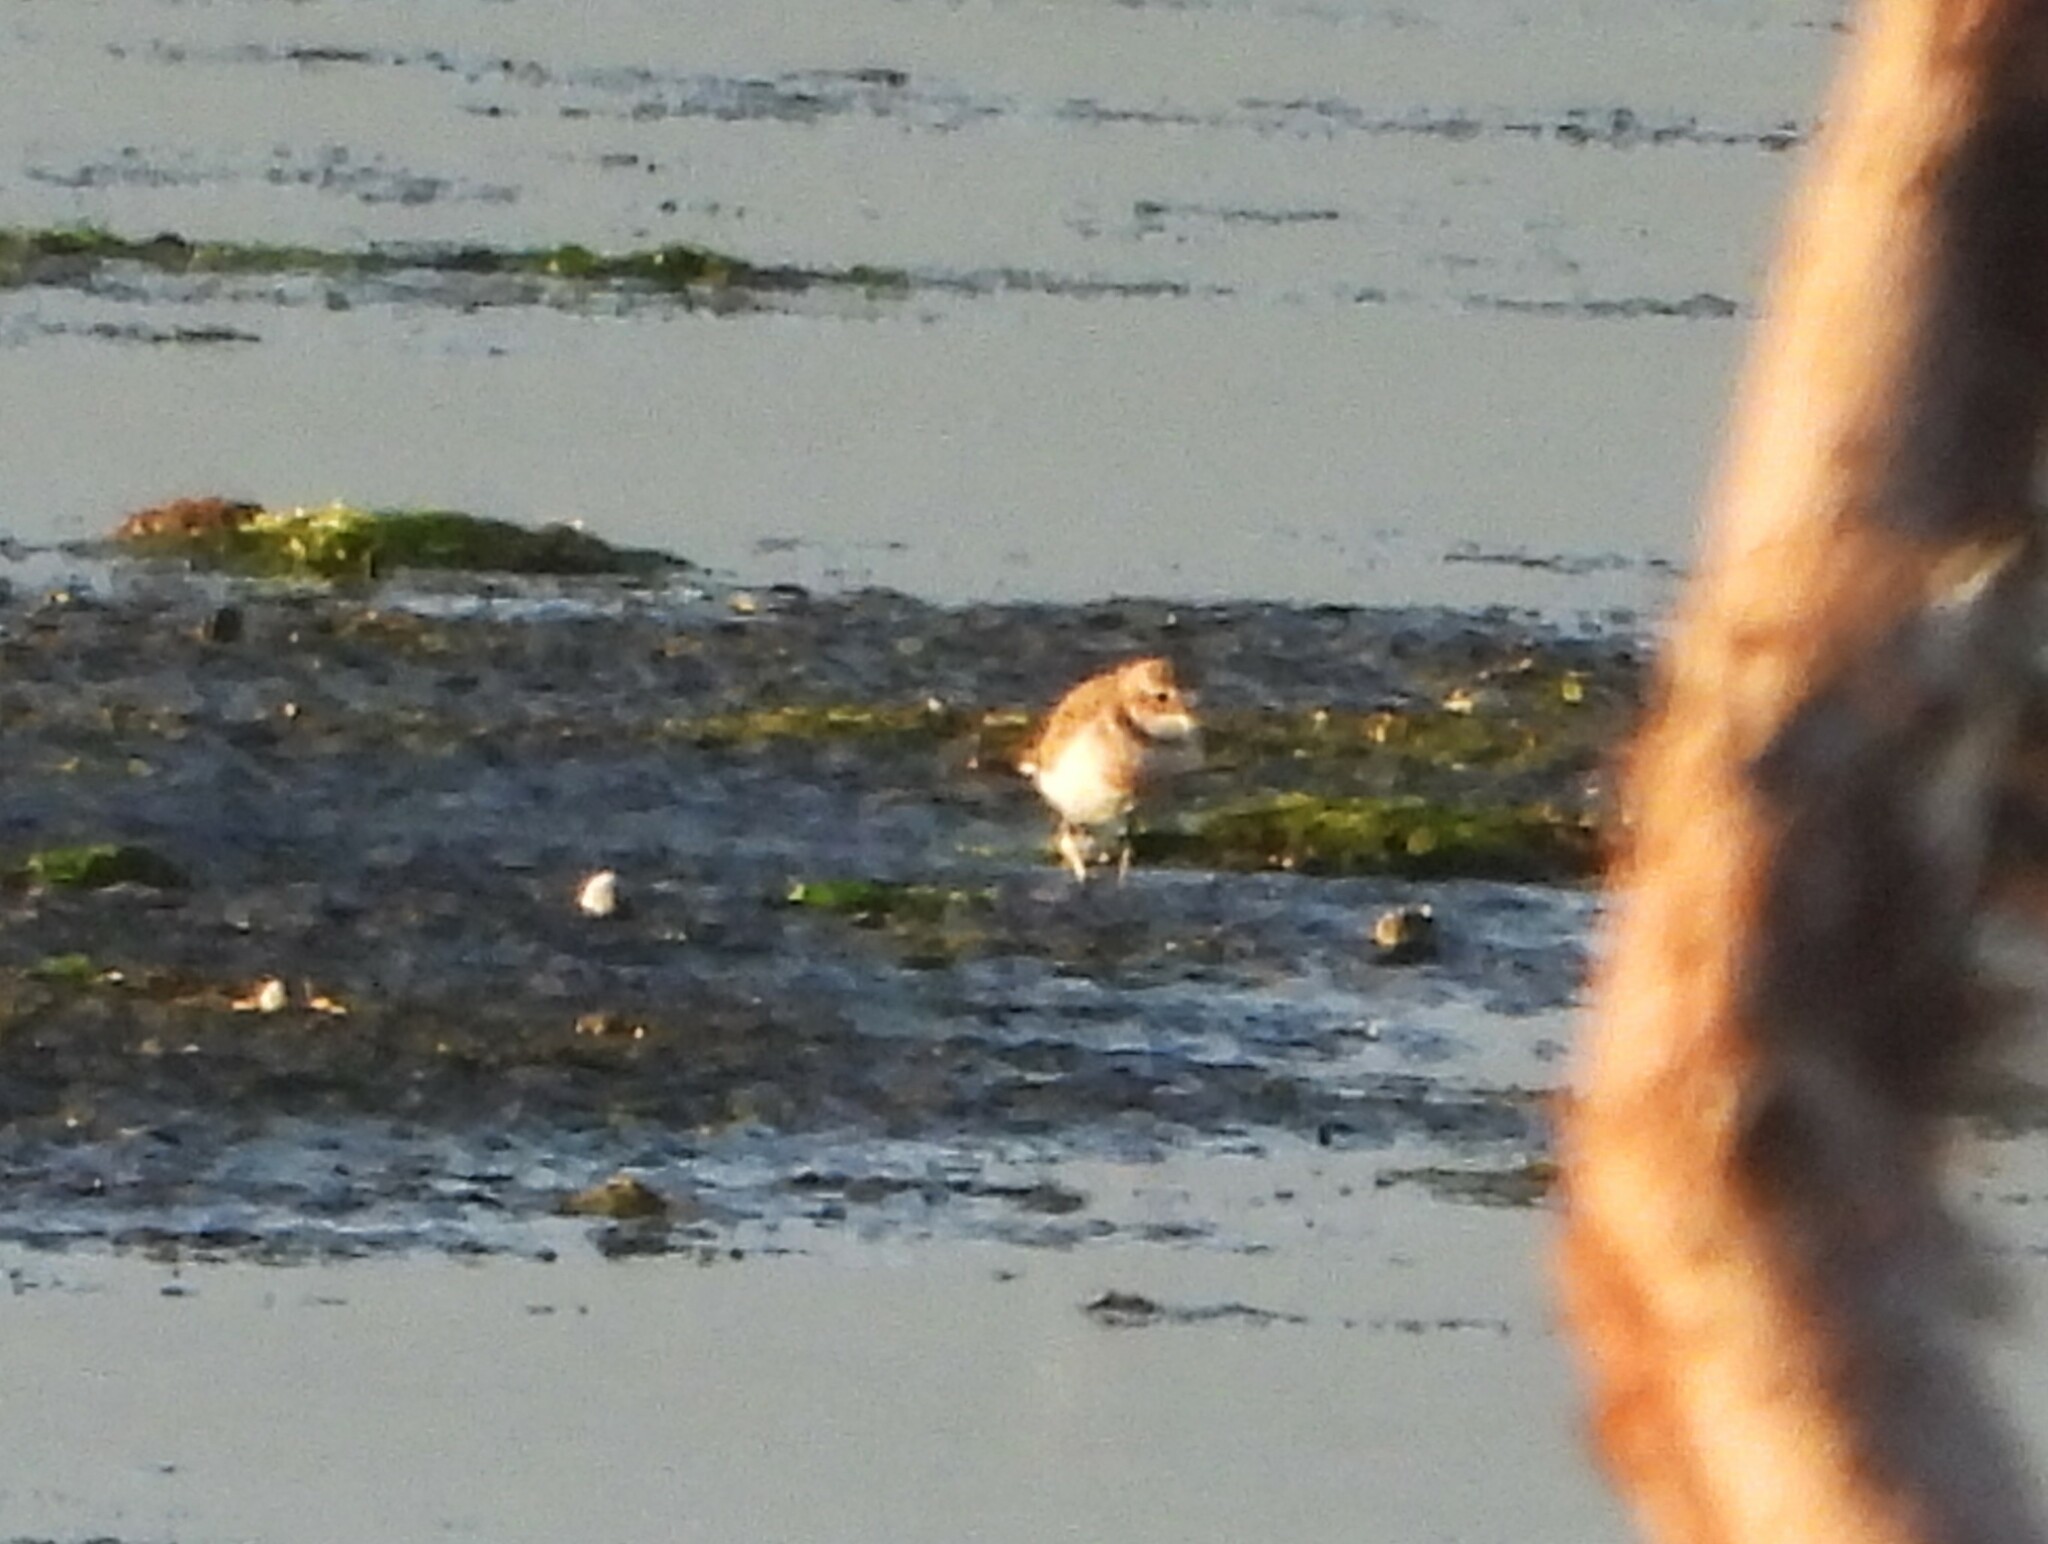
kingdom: Animalia
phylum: Chordata
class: Aves
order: Charadriiformes
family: Charadriidae
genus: Anarhynchus
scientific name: Anarhynchus
